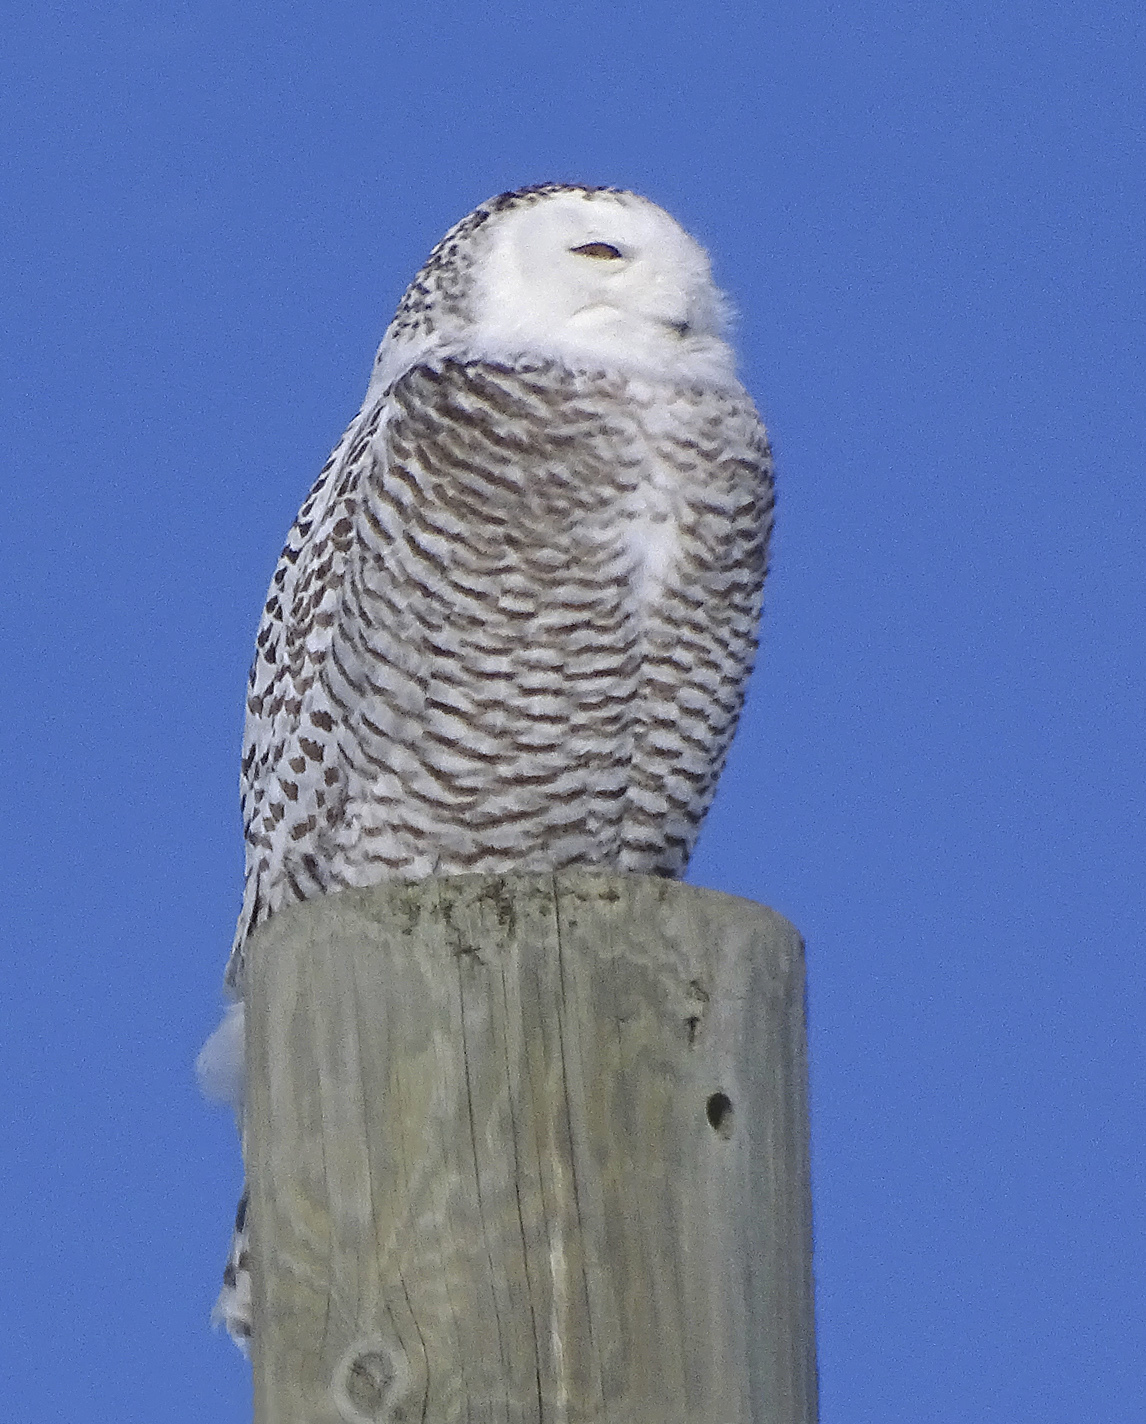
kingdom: Animalia
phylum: Chordata
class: Aves
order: Strigiformes
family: Strigidae
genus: Bubo
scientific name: Bubo scandiacus
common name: Snowy owl
